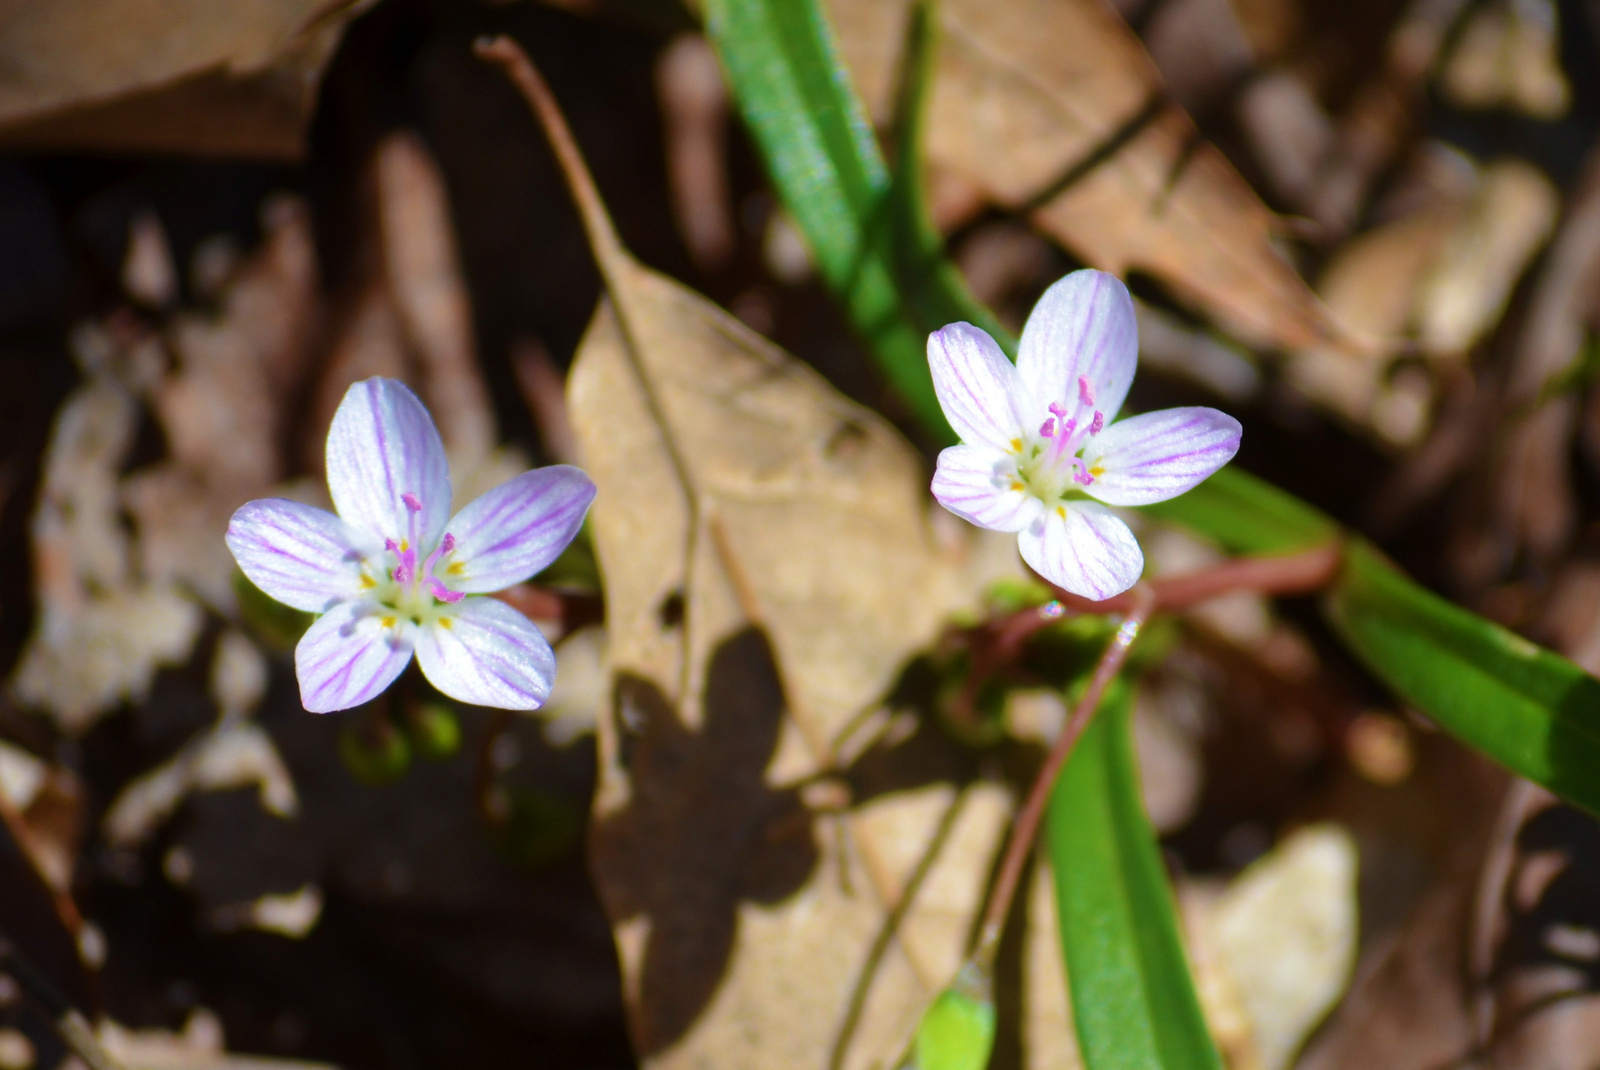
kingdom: Plantae
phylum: Tracheophyta
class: Magnoliopsida
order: Caryophyllales
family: Montiaceae
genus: Claytonia
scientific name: Claytonia virginica
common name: Virginia springbeauty
